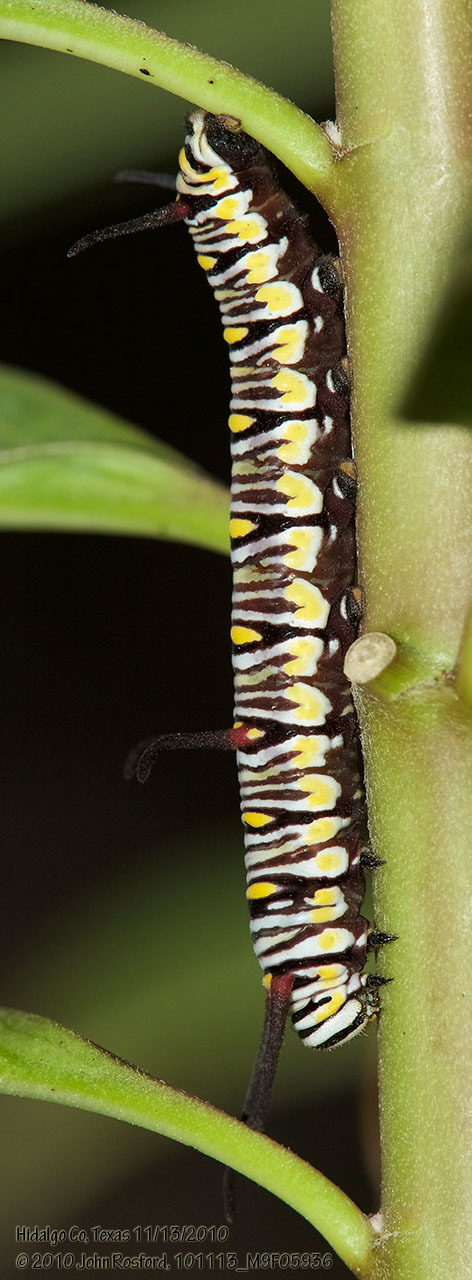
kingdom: Animalia
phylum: Arthropoda
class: Insecta
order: Lepidoptera
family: Nymphalidae
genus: Danaus
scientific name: Danaus gilippus
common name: Queen
